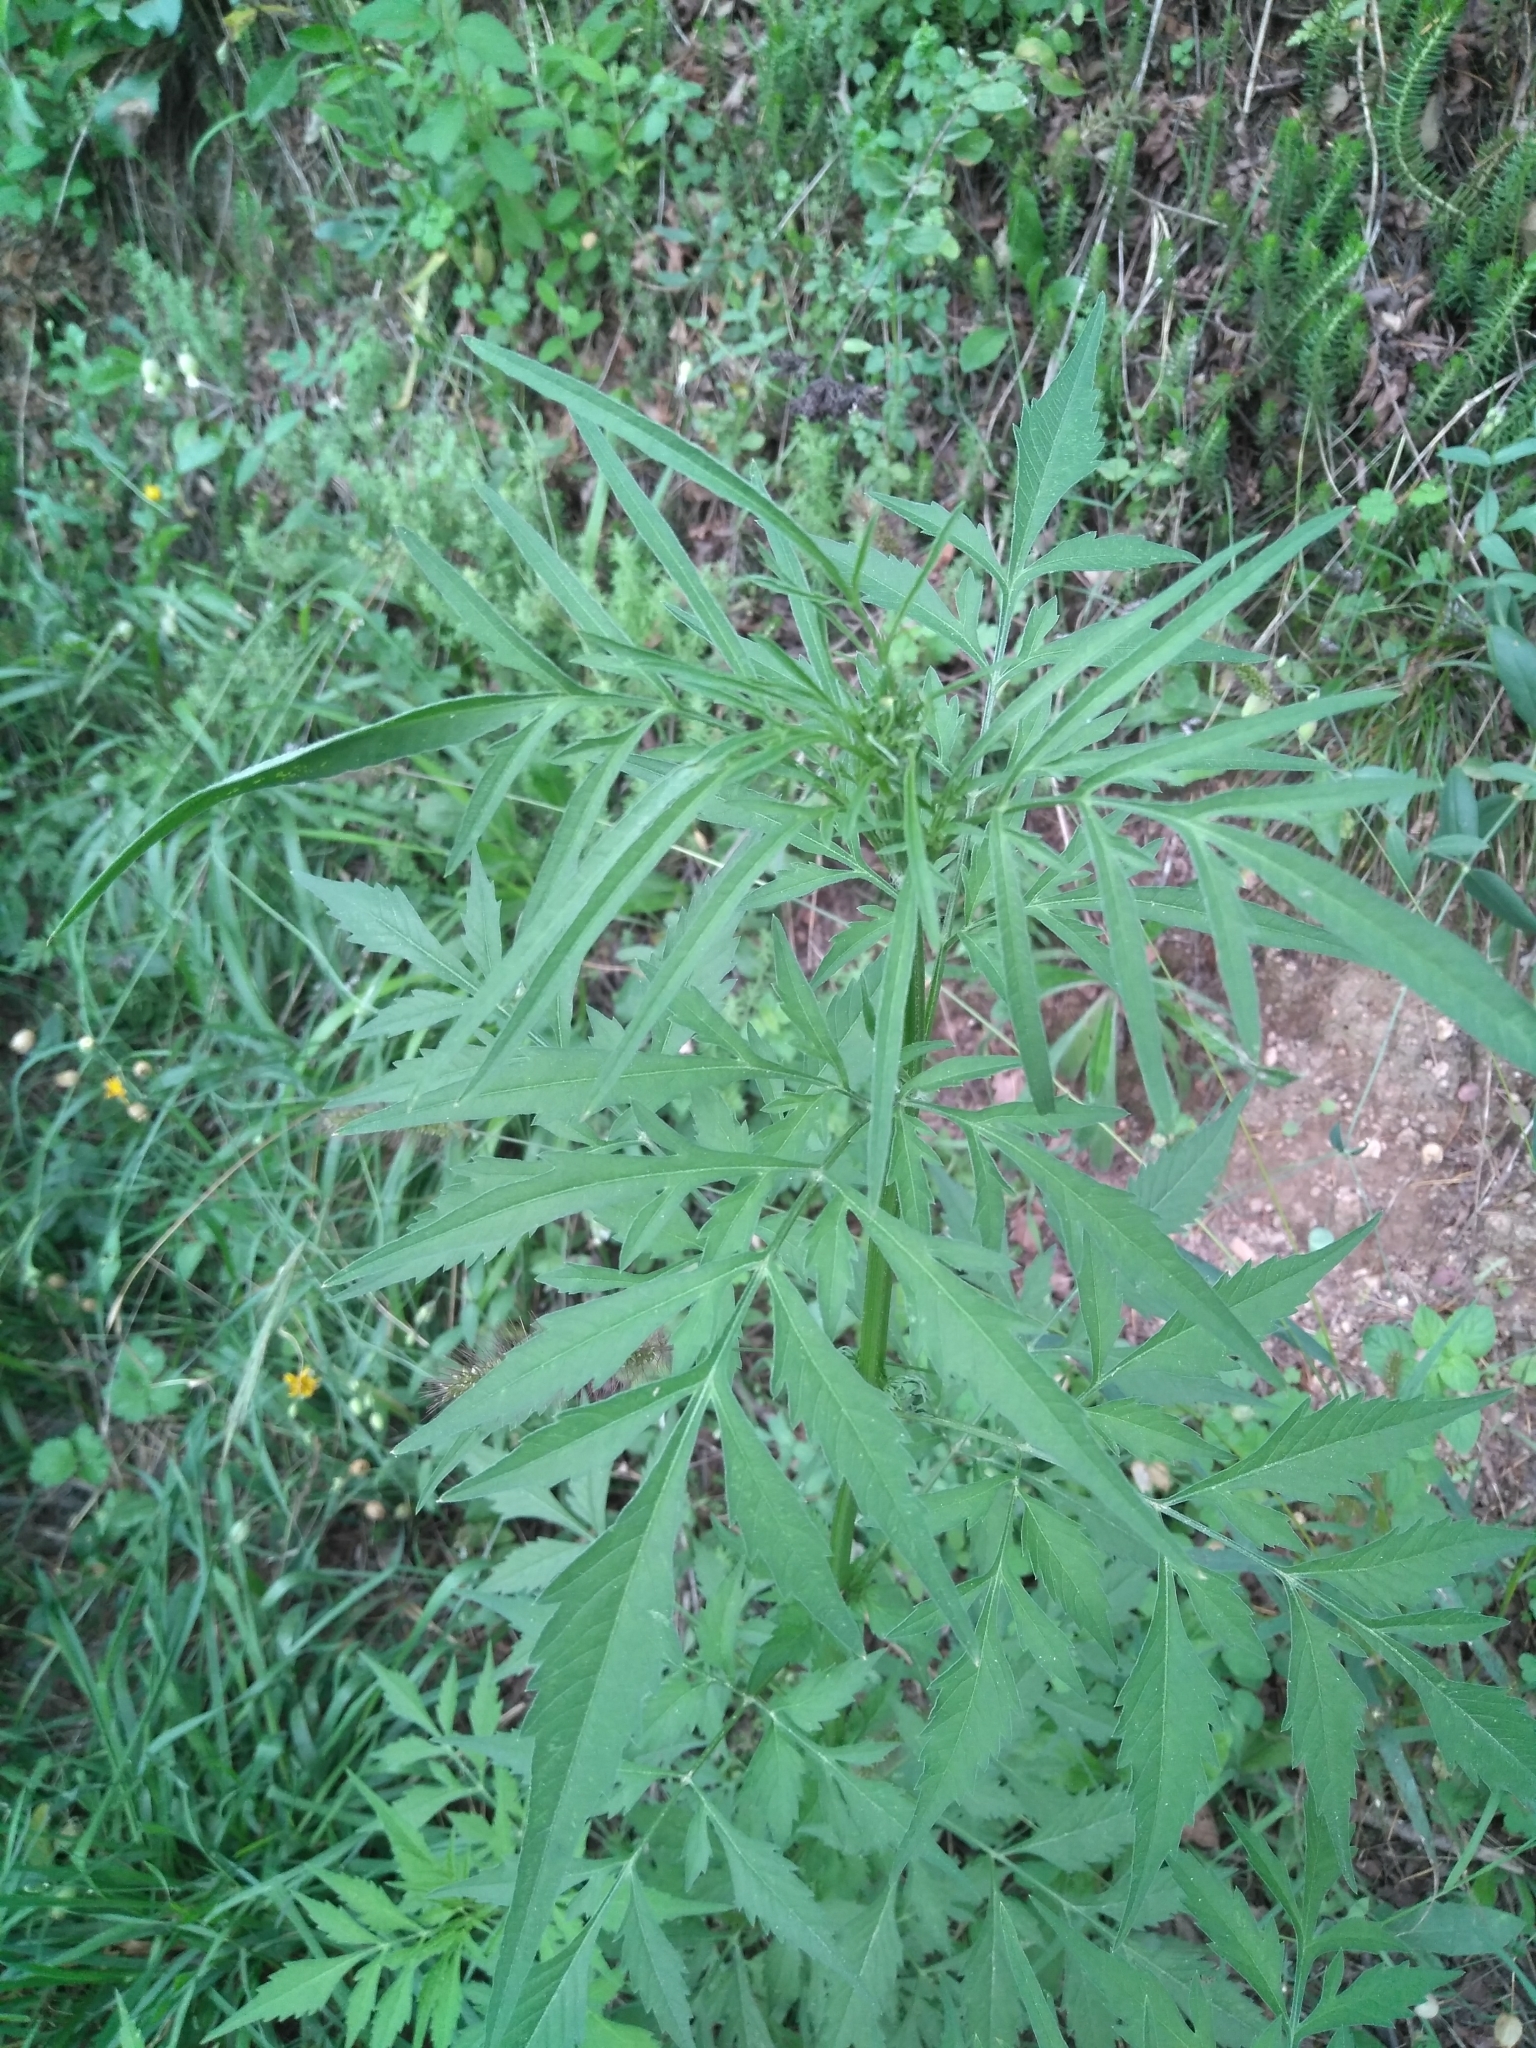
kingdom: Plantae
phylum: Tracheophyta
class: Magnoliopsida
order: Asterales
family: Asteraceae
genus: Bidens
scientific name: Bidens subalternans
